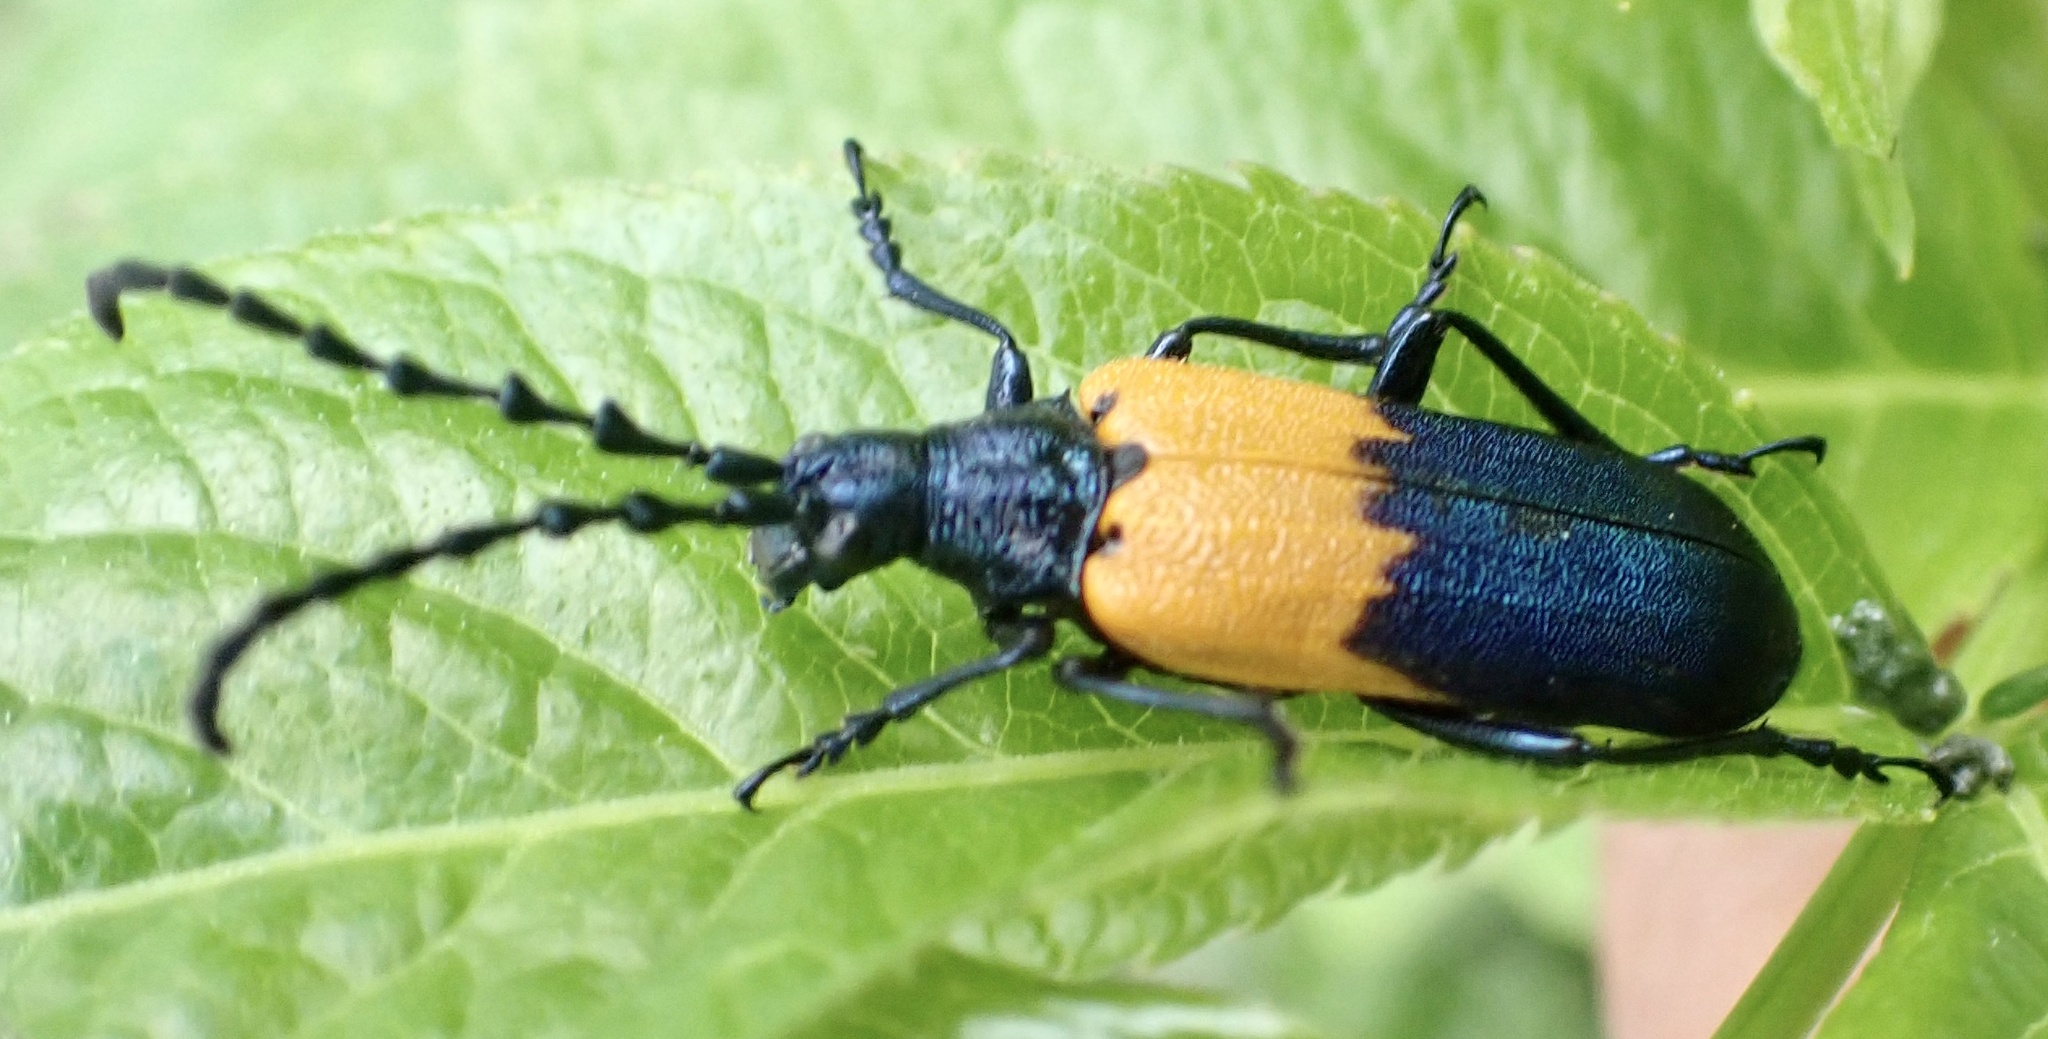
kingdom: Animalia
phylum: Arthropoda
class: Insecta
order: Coleoptera
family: Cerambycidae
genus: Desmocerus
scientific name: Desmocerus palliatus
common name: Eastern elderberry borer
